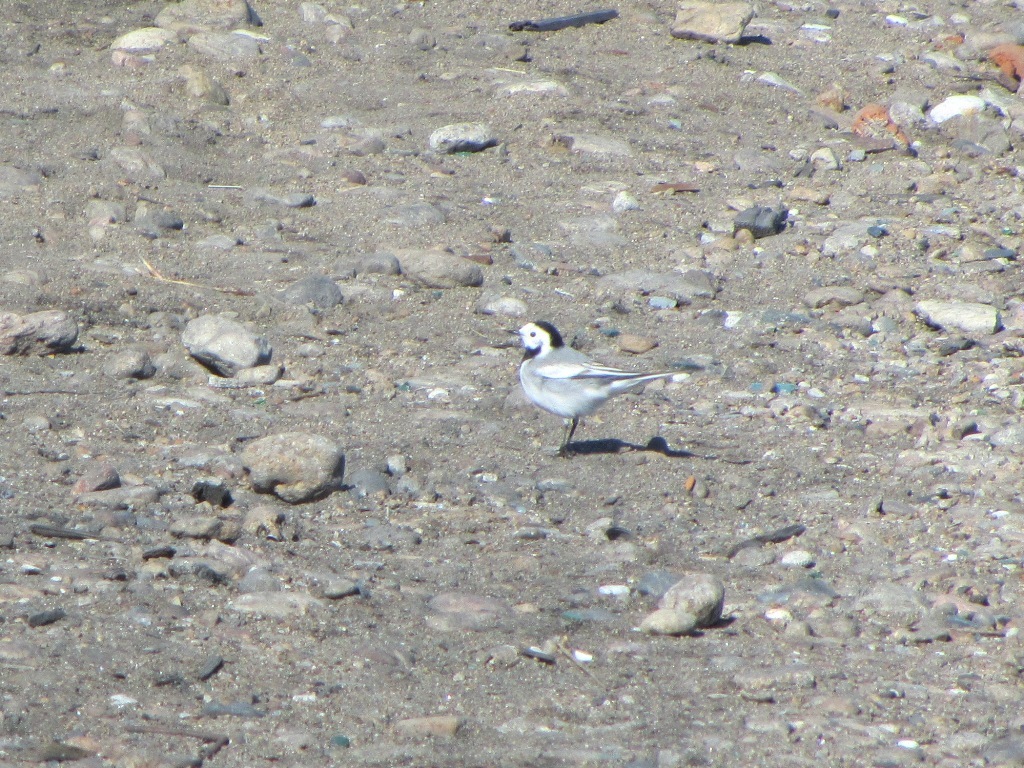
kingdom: Animalia
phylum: Chordata
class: Aves
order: Passeriformes
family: Motacillidae
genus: Motacilla
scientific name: Motacilla alba
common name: White wagtail
